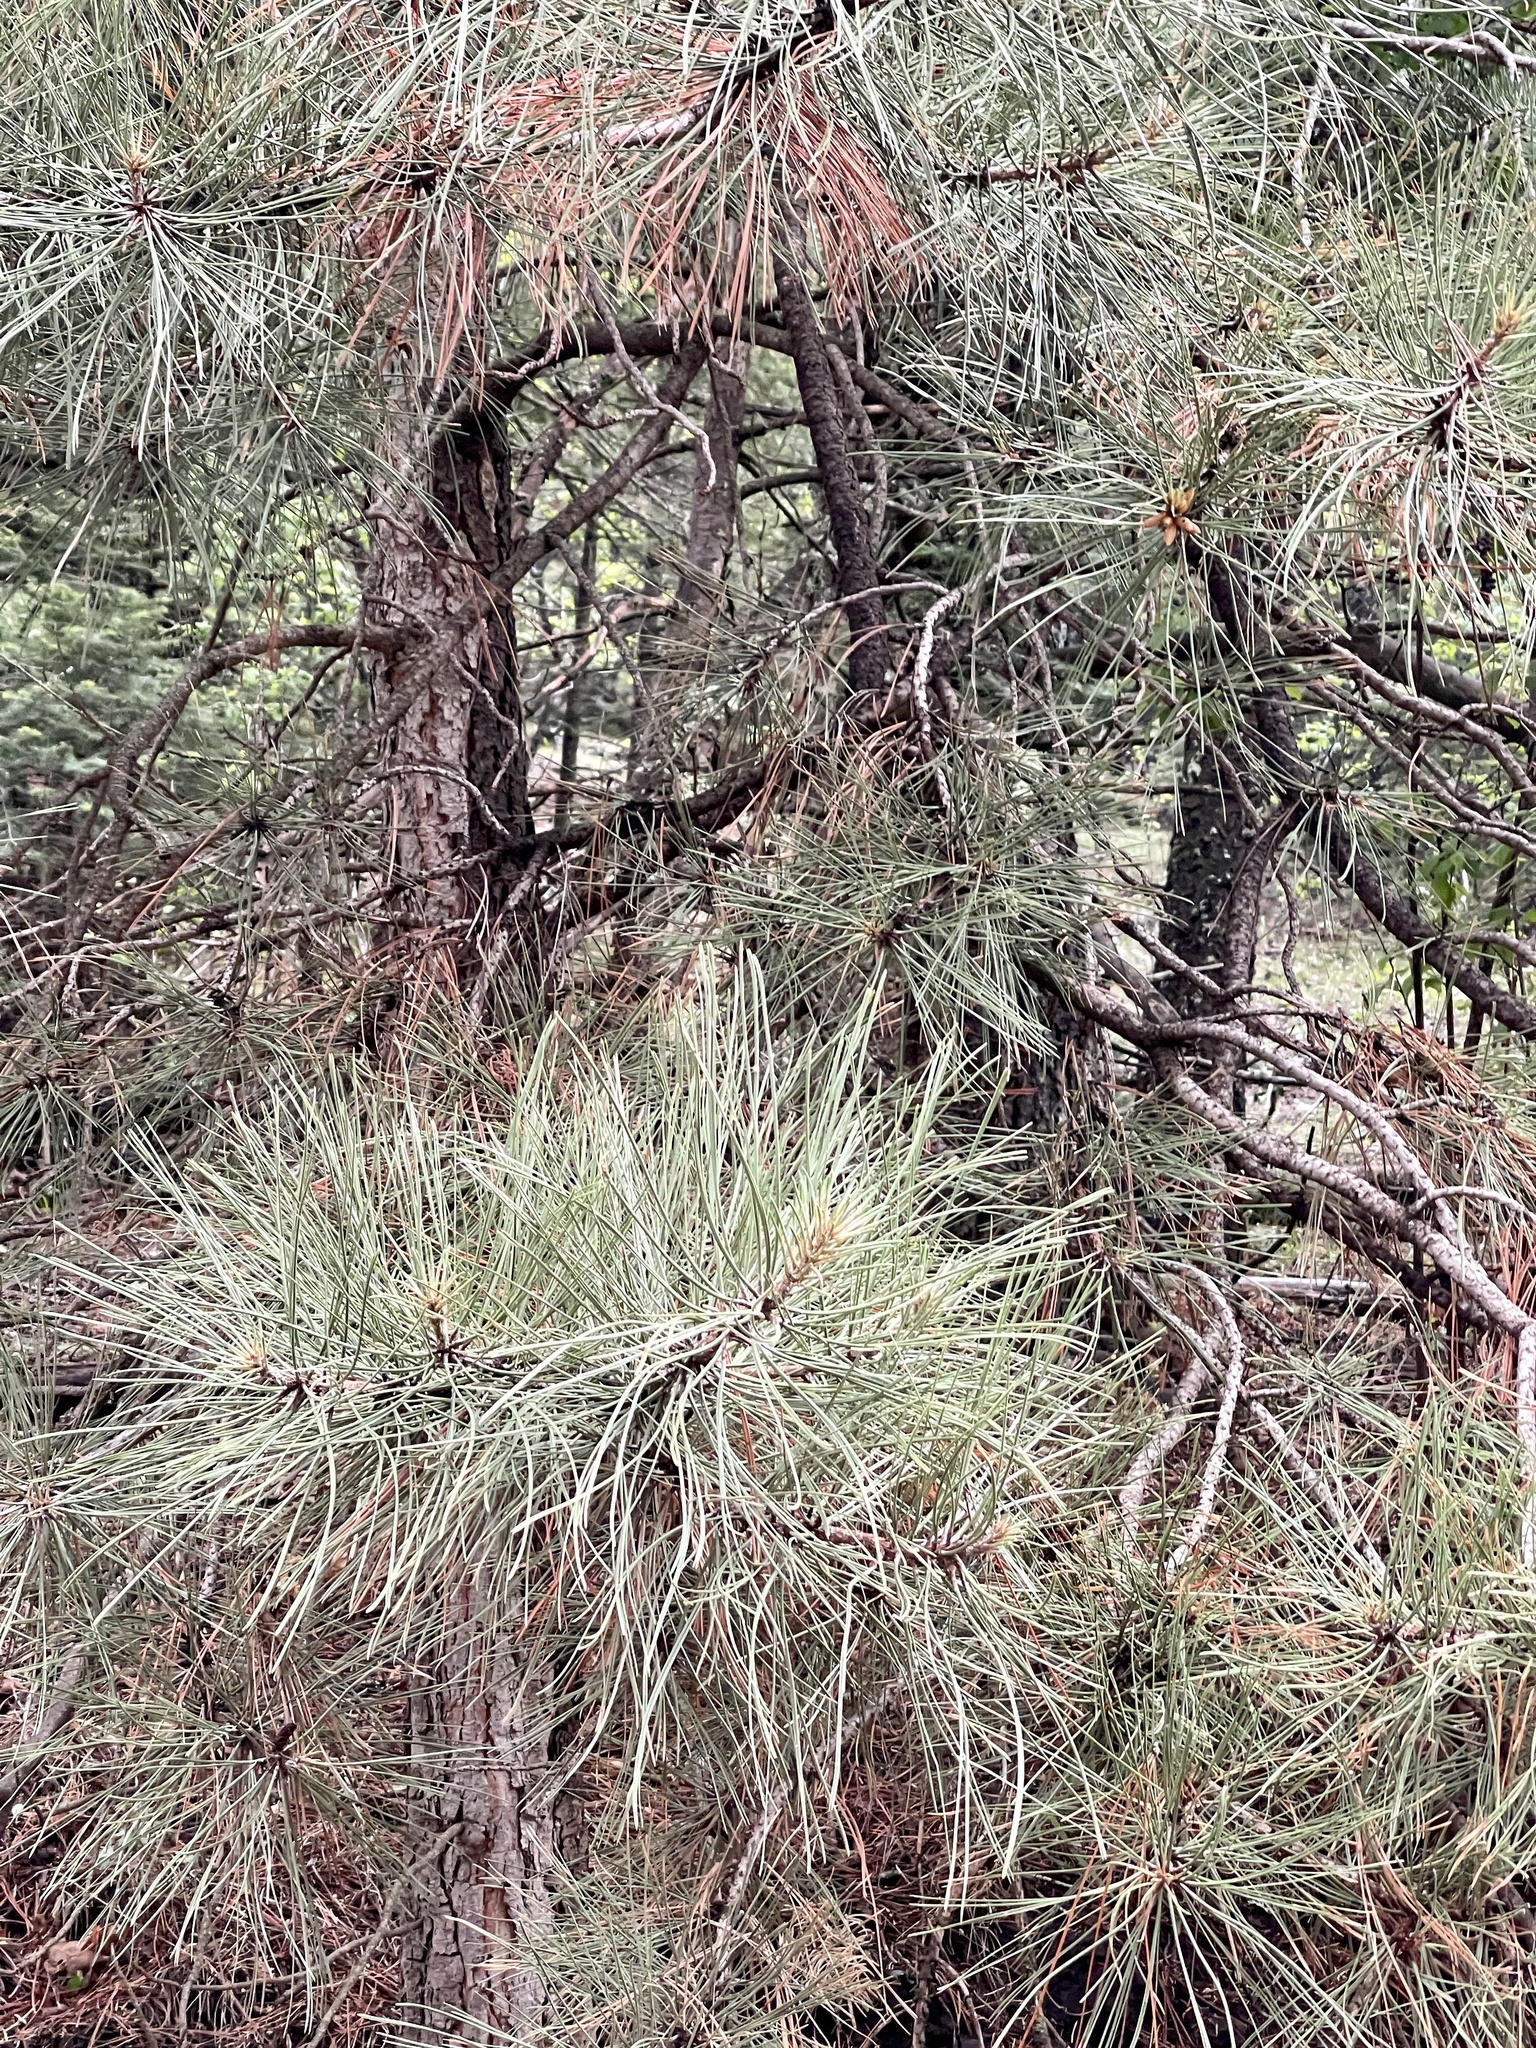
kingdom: Plantae
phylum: Tracheophyta
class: Pinopsida
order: Pinales
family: Pinaceae
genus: Pinus
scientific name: Pinus ponderosa
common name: Western yellow-pine
